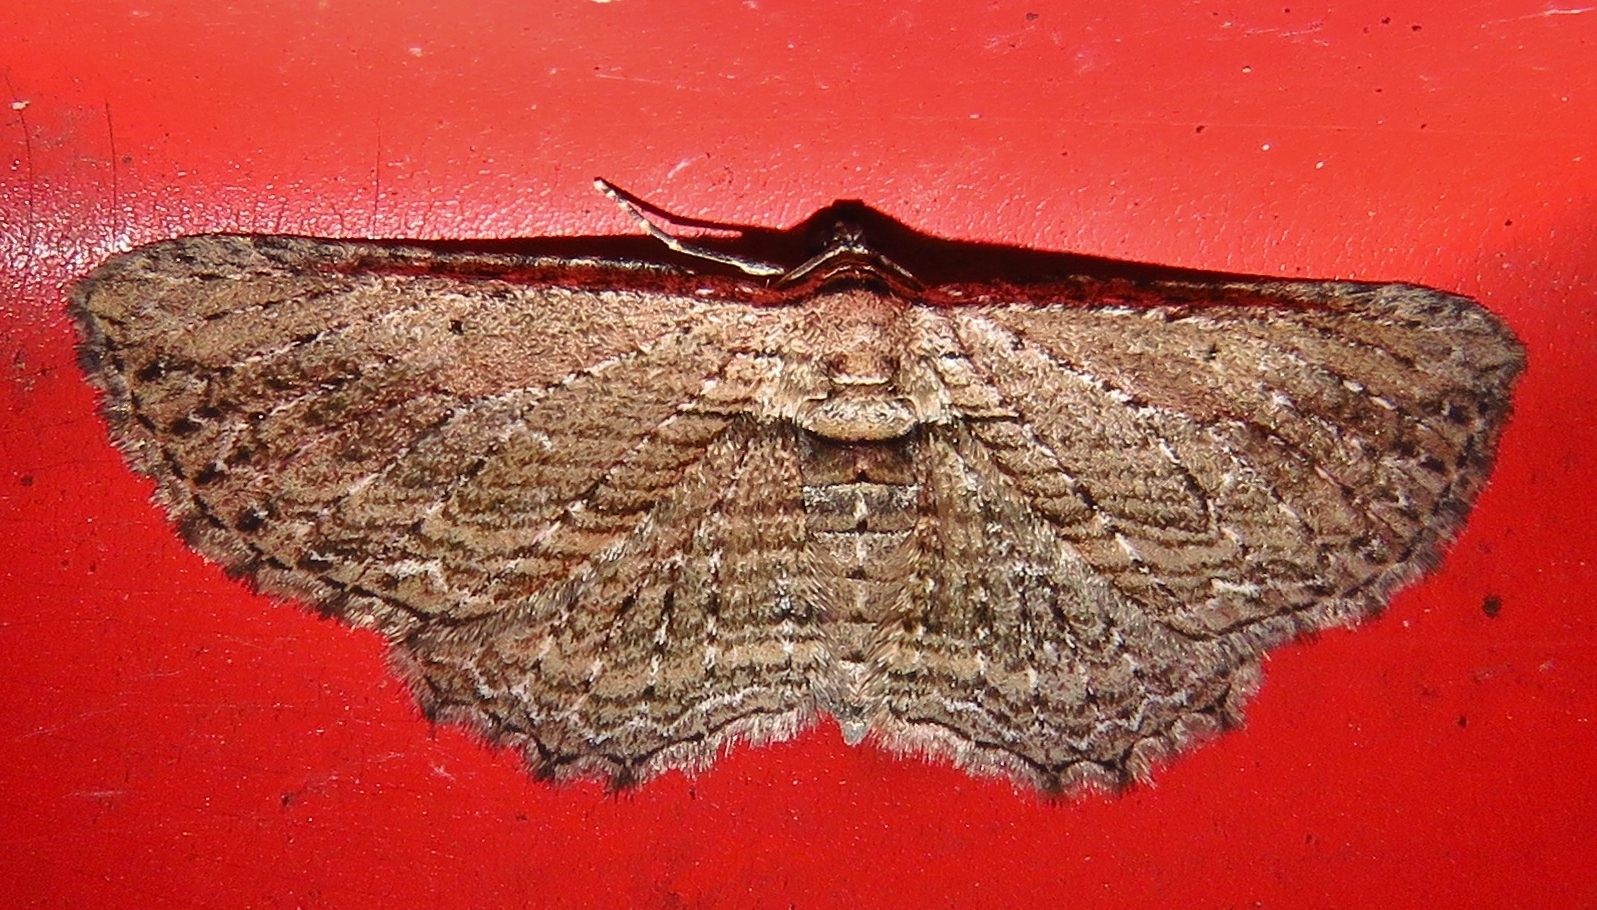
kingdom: Animalia
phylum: Arthropoda
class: Insecta
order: Lepidoptera
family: Geometridae
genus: Horisme
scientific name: Horisme intestinata
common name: Brown bark carpet
